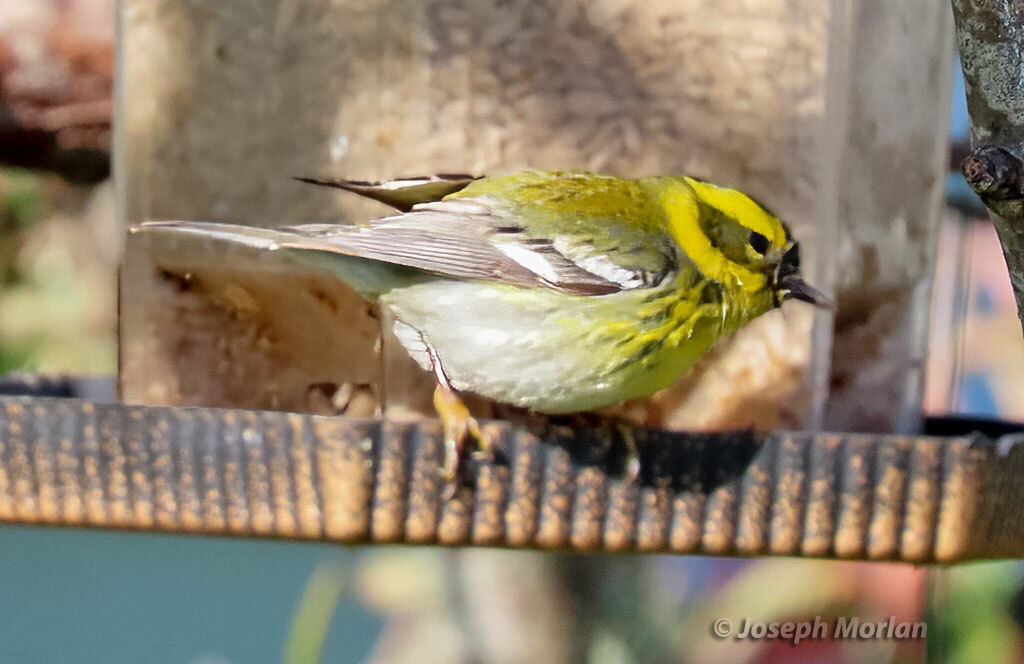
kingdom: Animalia
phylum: Chordata
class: Aves
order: Passeriformes
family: Parulidae
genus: Setophaga
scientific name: Setophaga townsendi
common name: Townsend's warbler
